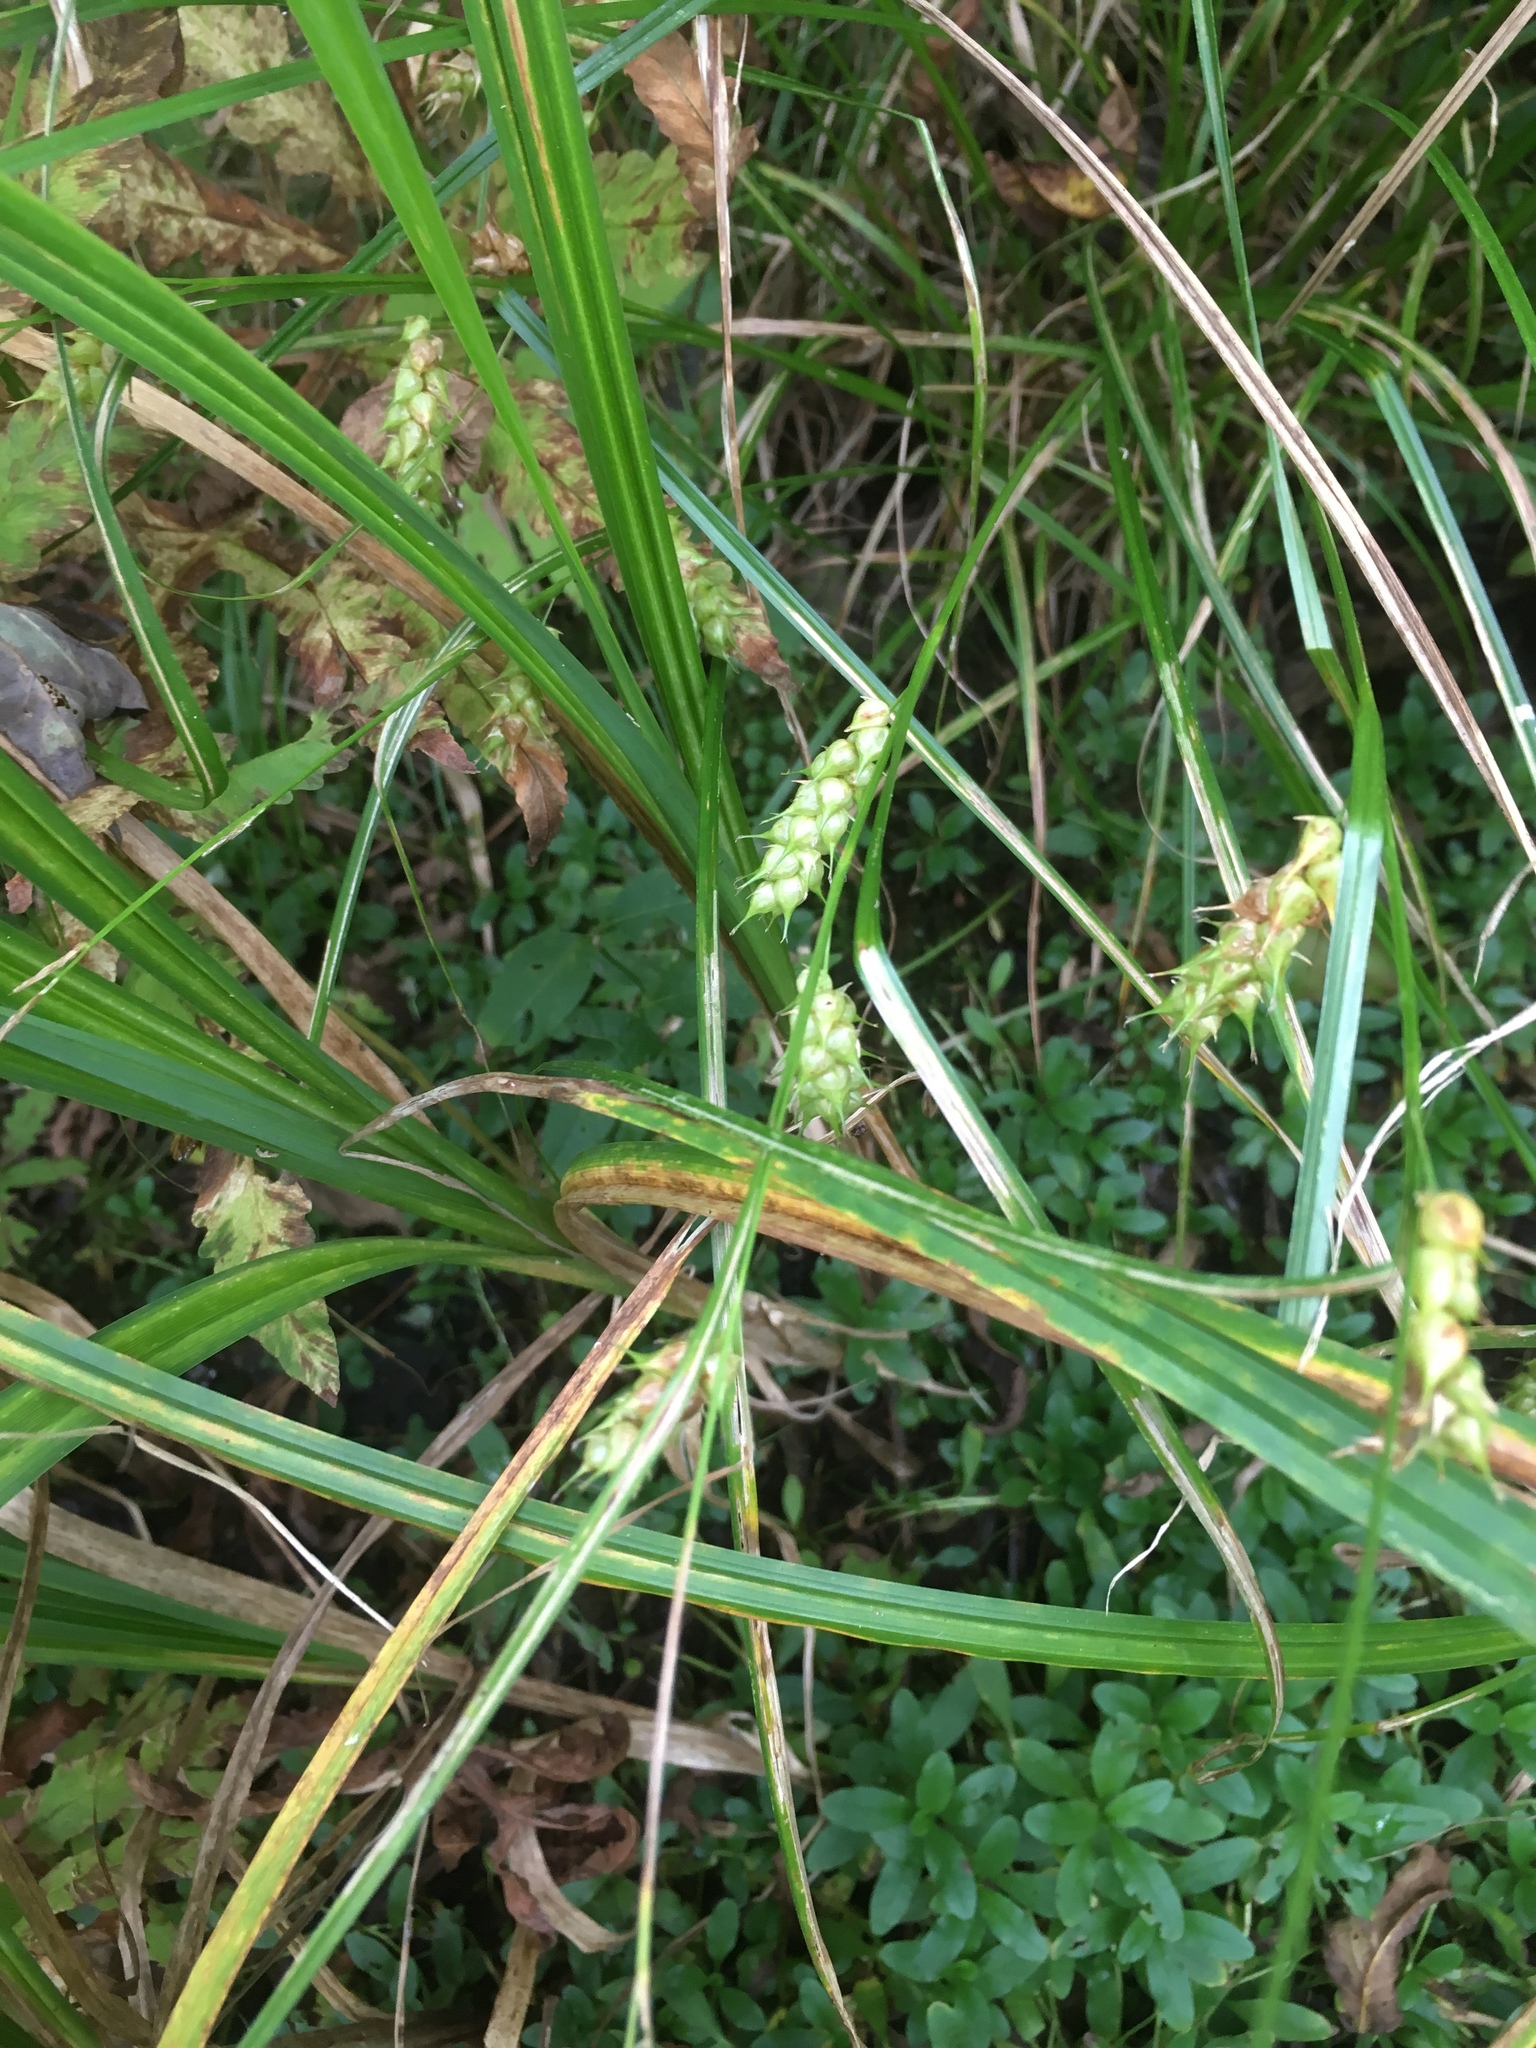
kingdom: Plantae
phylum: Tracheophyta
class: Liliopsida
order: Poales
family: Cyperaceae
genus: Carex
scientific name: Carex tuckermanii
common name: Tuckerman's sedge
